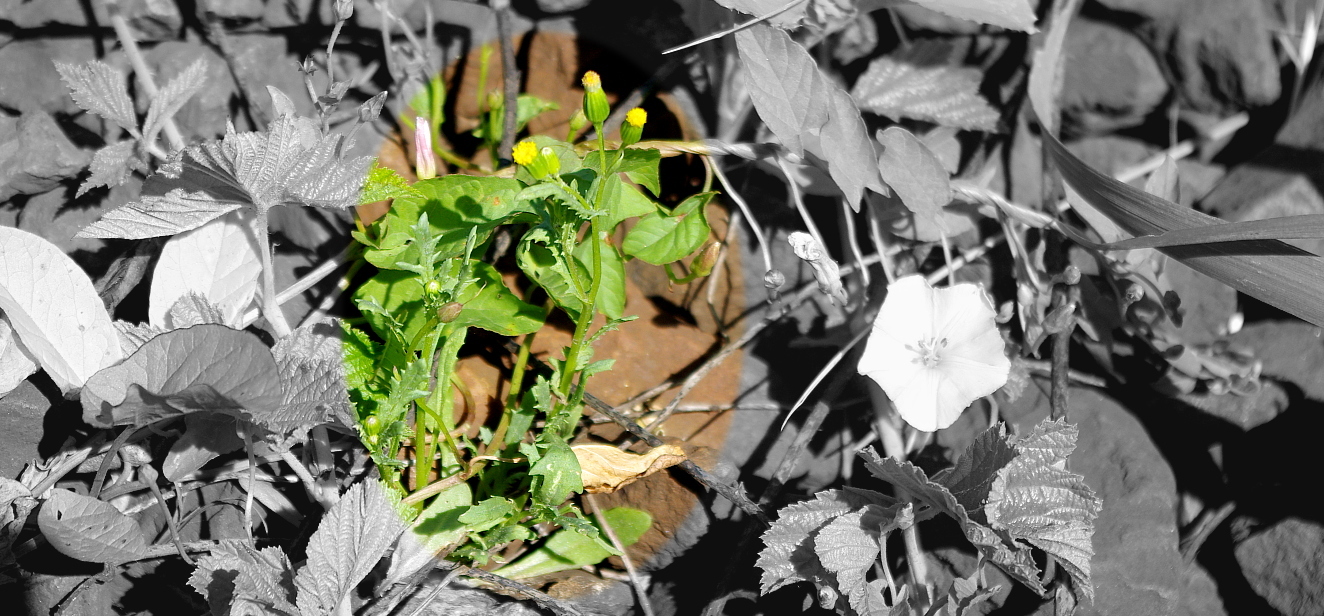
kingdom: Plantae
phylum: Tracheophyta
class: Magnoliopsida
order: Asterales
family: Asteraceae
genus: Senecio
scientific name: Senecio vulgaris
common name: Old-man-in-the-spring
